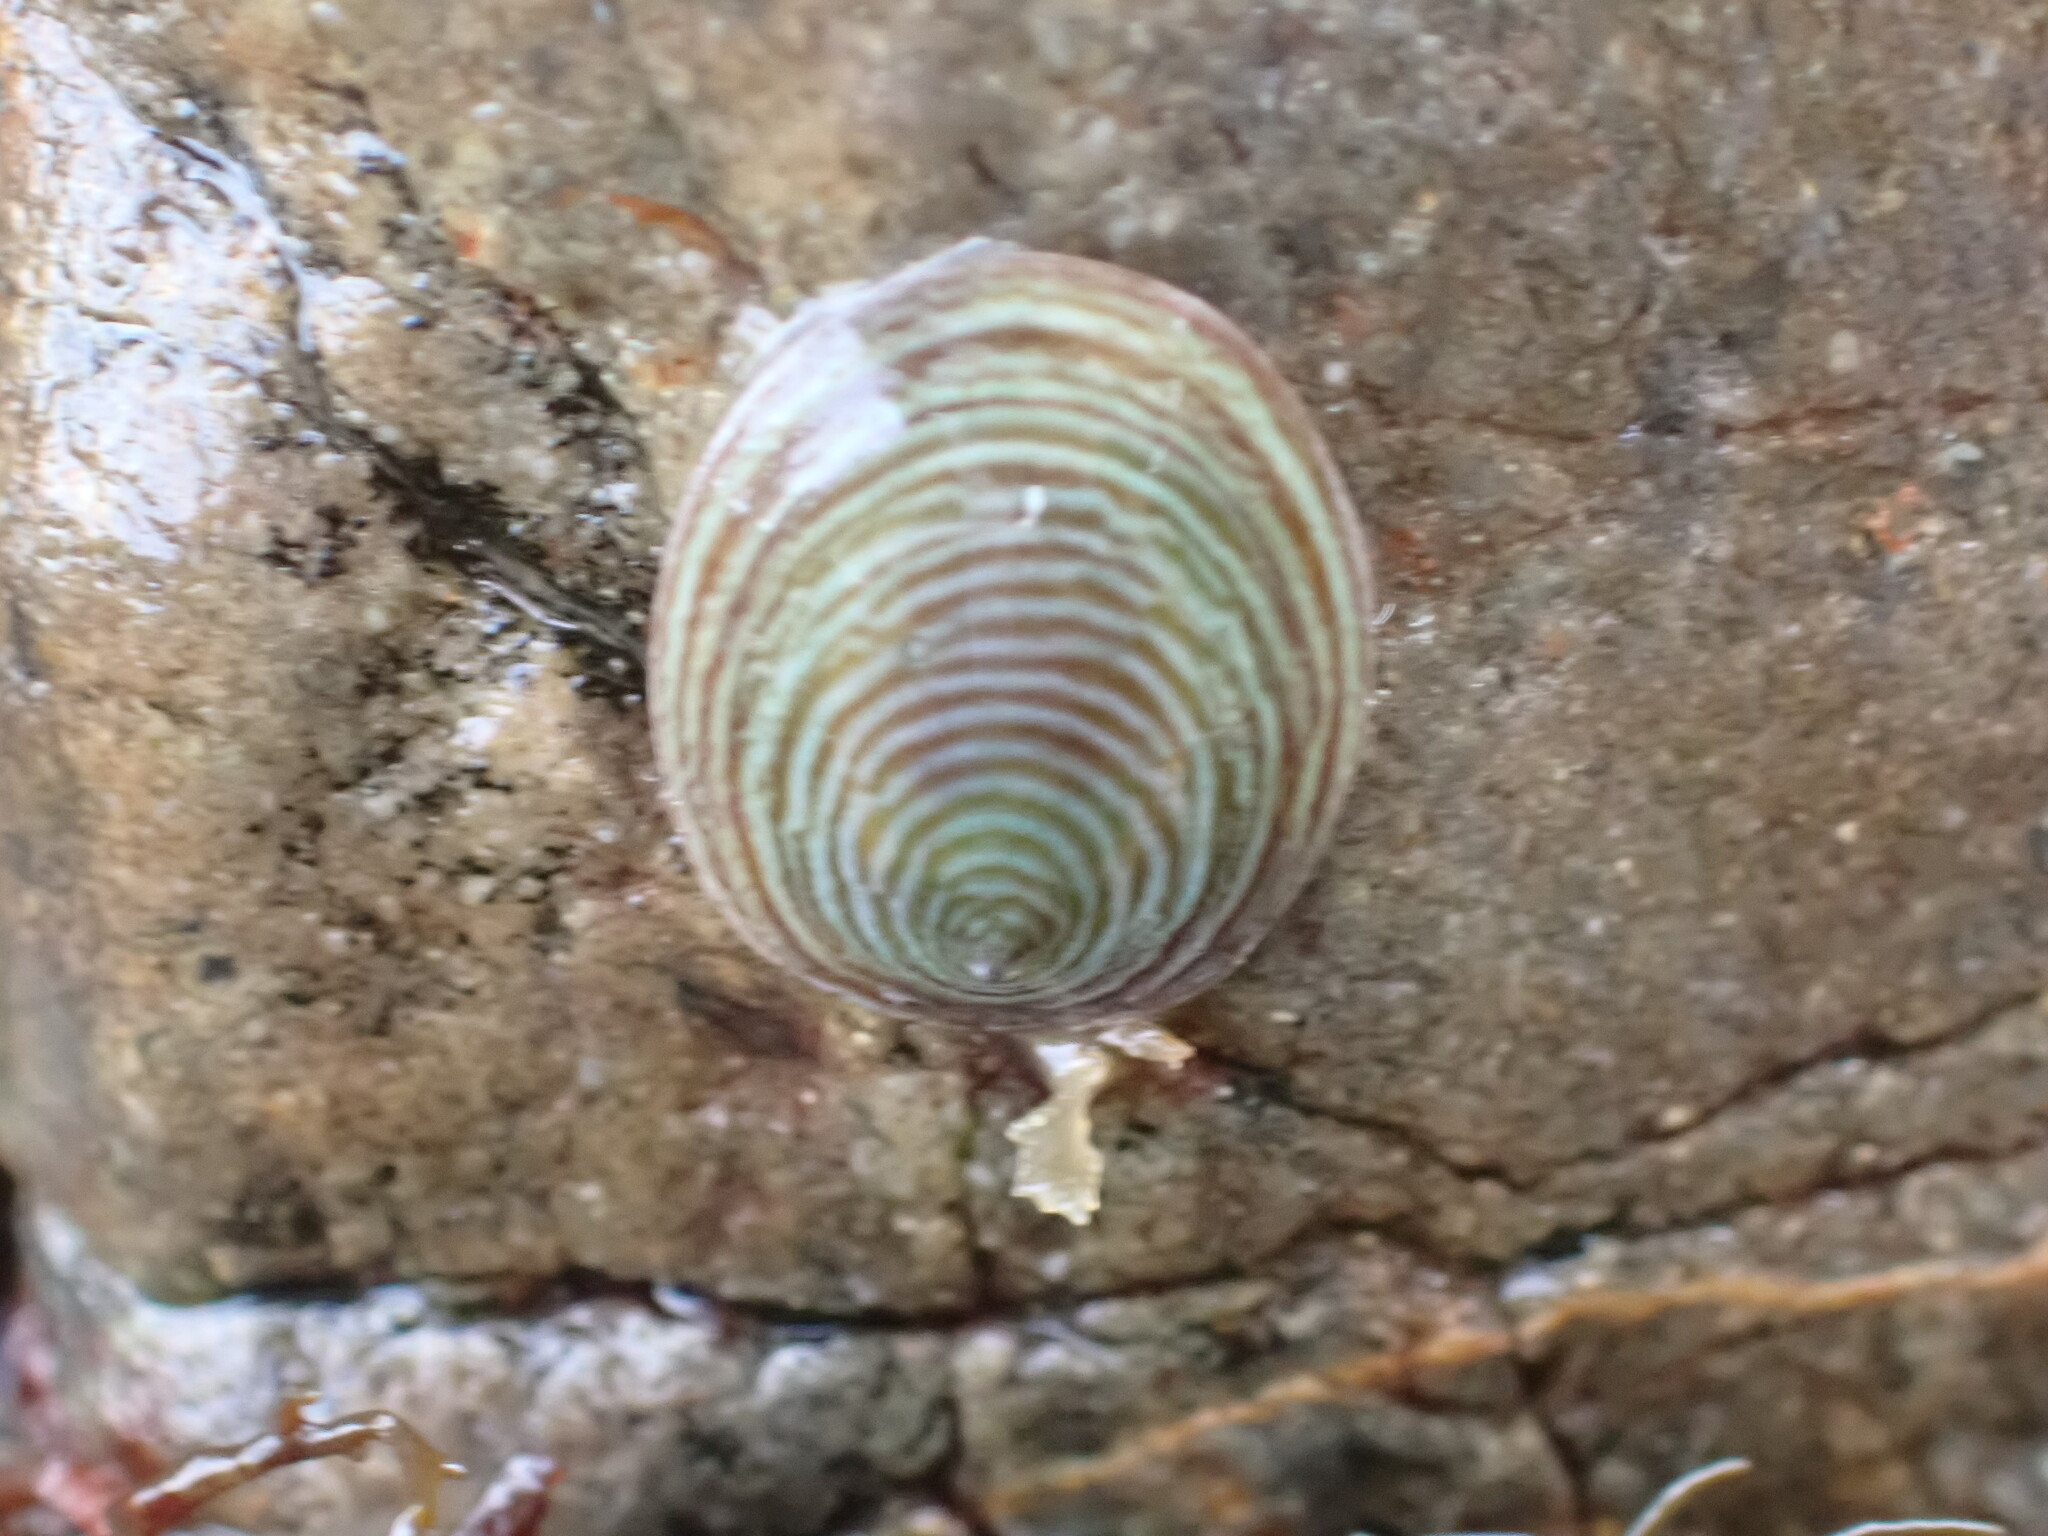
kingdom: Animalia
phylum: Mollusca
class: Gastropoda
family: Lottiidae
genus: Atalacmea
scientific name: Atalacmea fragilis
